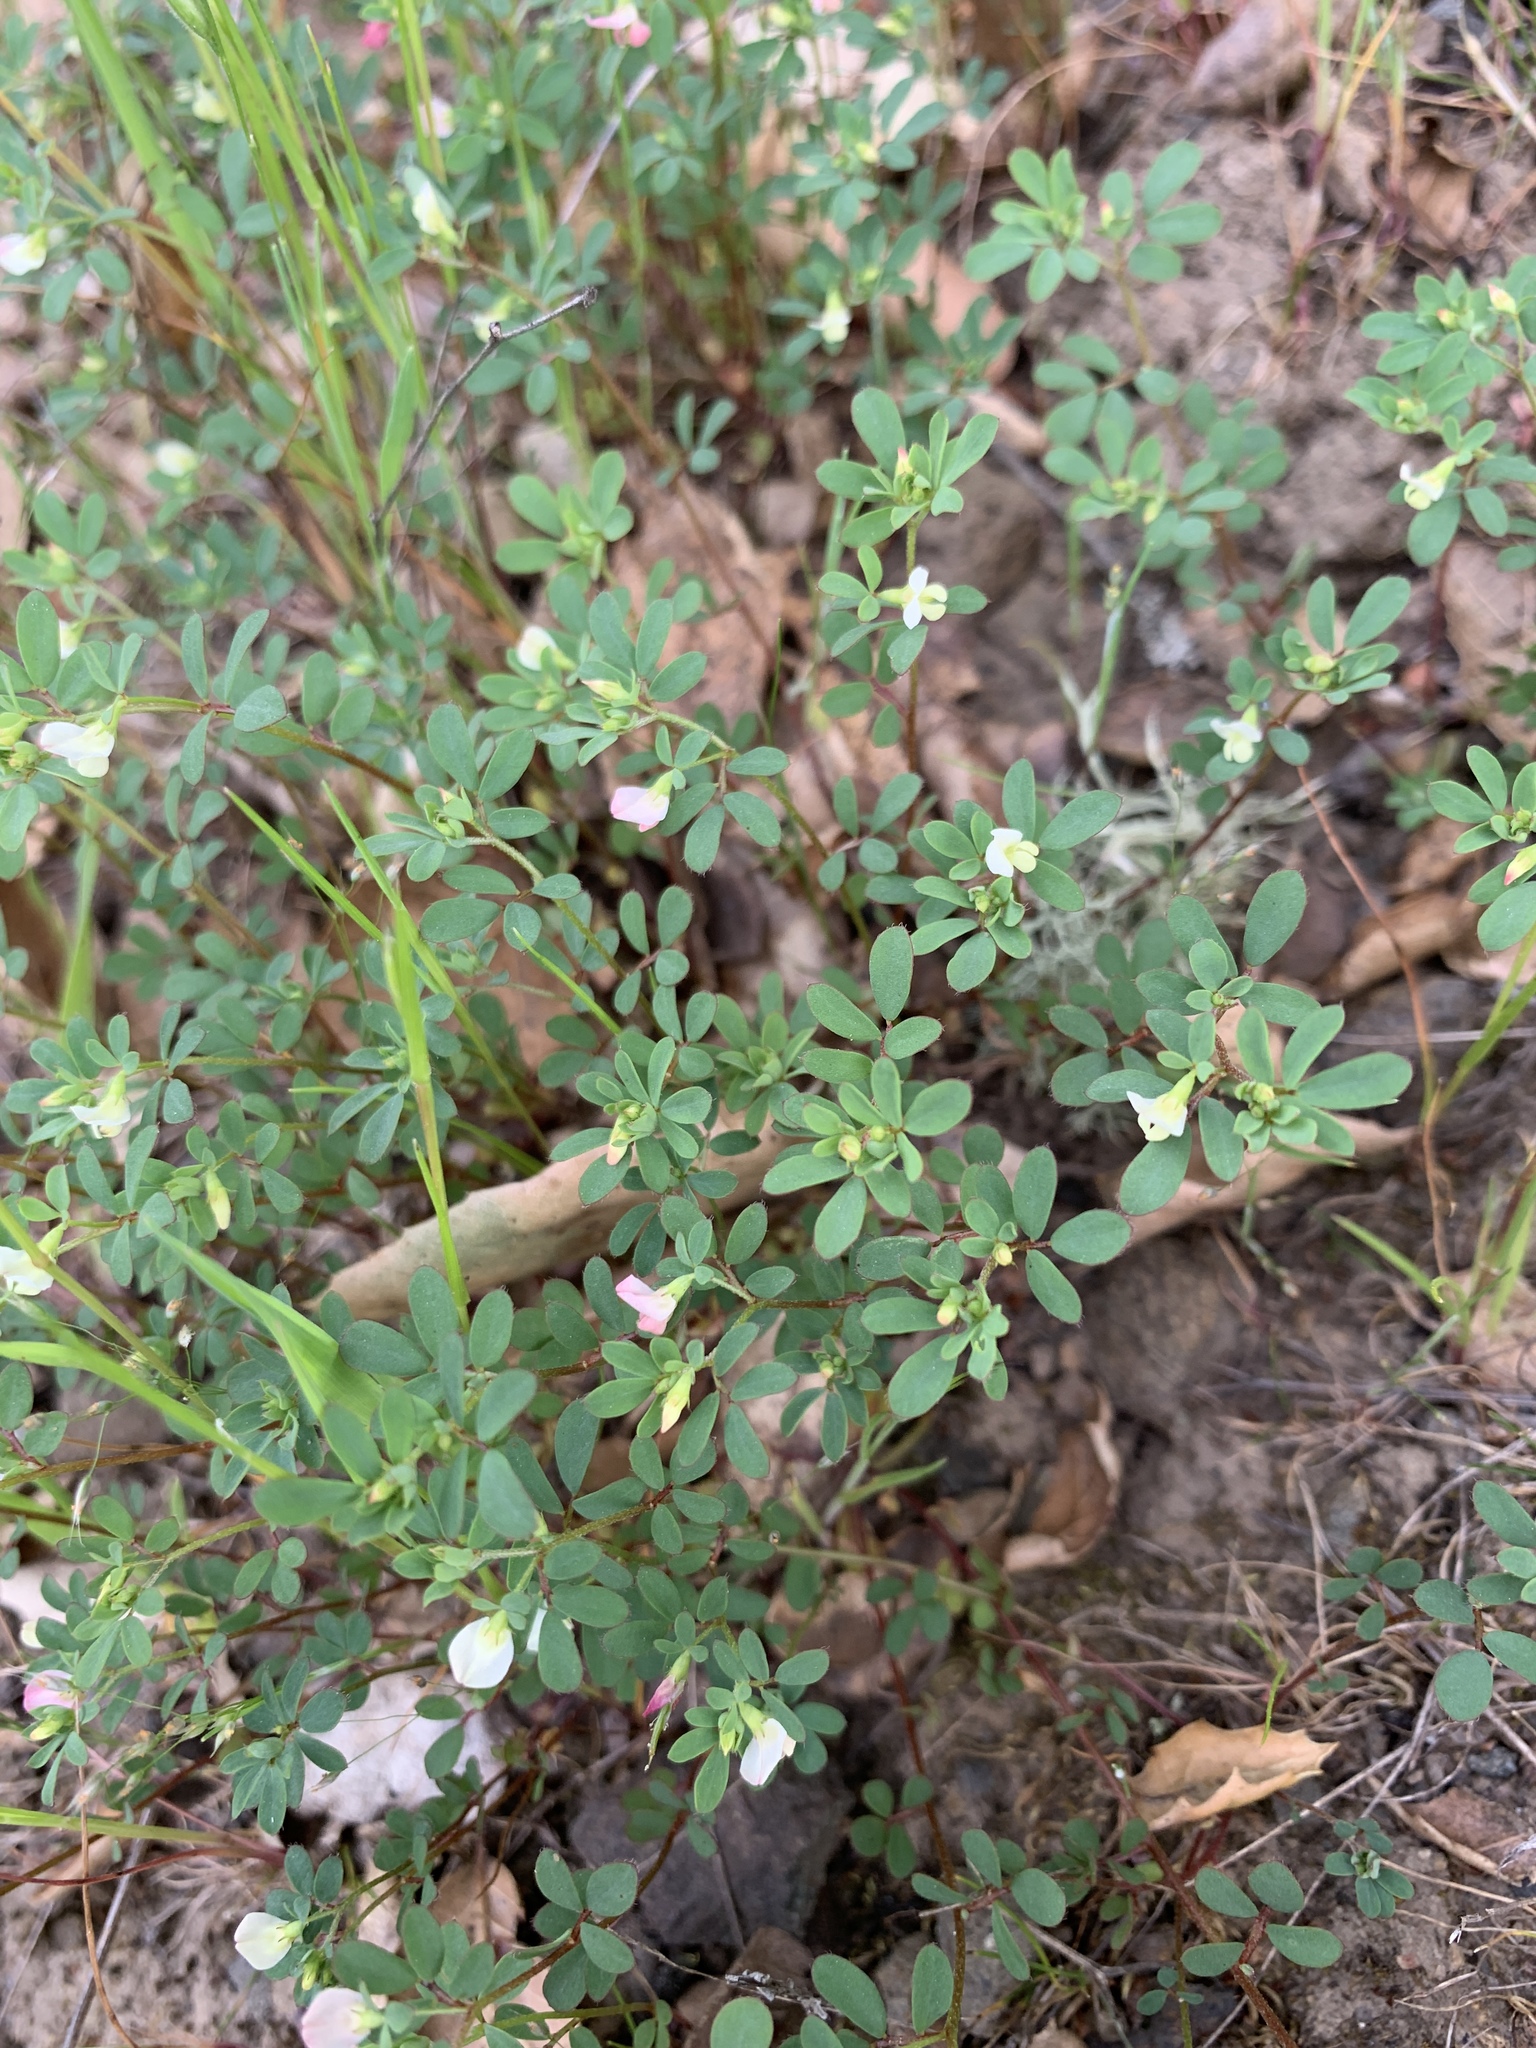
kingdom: Plantae
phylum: Tracheophyta
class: Magnoliopsida
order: Fabales
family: Fabaceae
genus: Acmispon
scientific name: Acmispon parviflorus
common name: Desert deer-vetch
